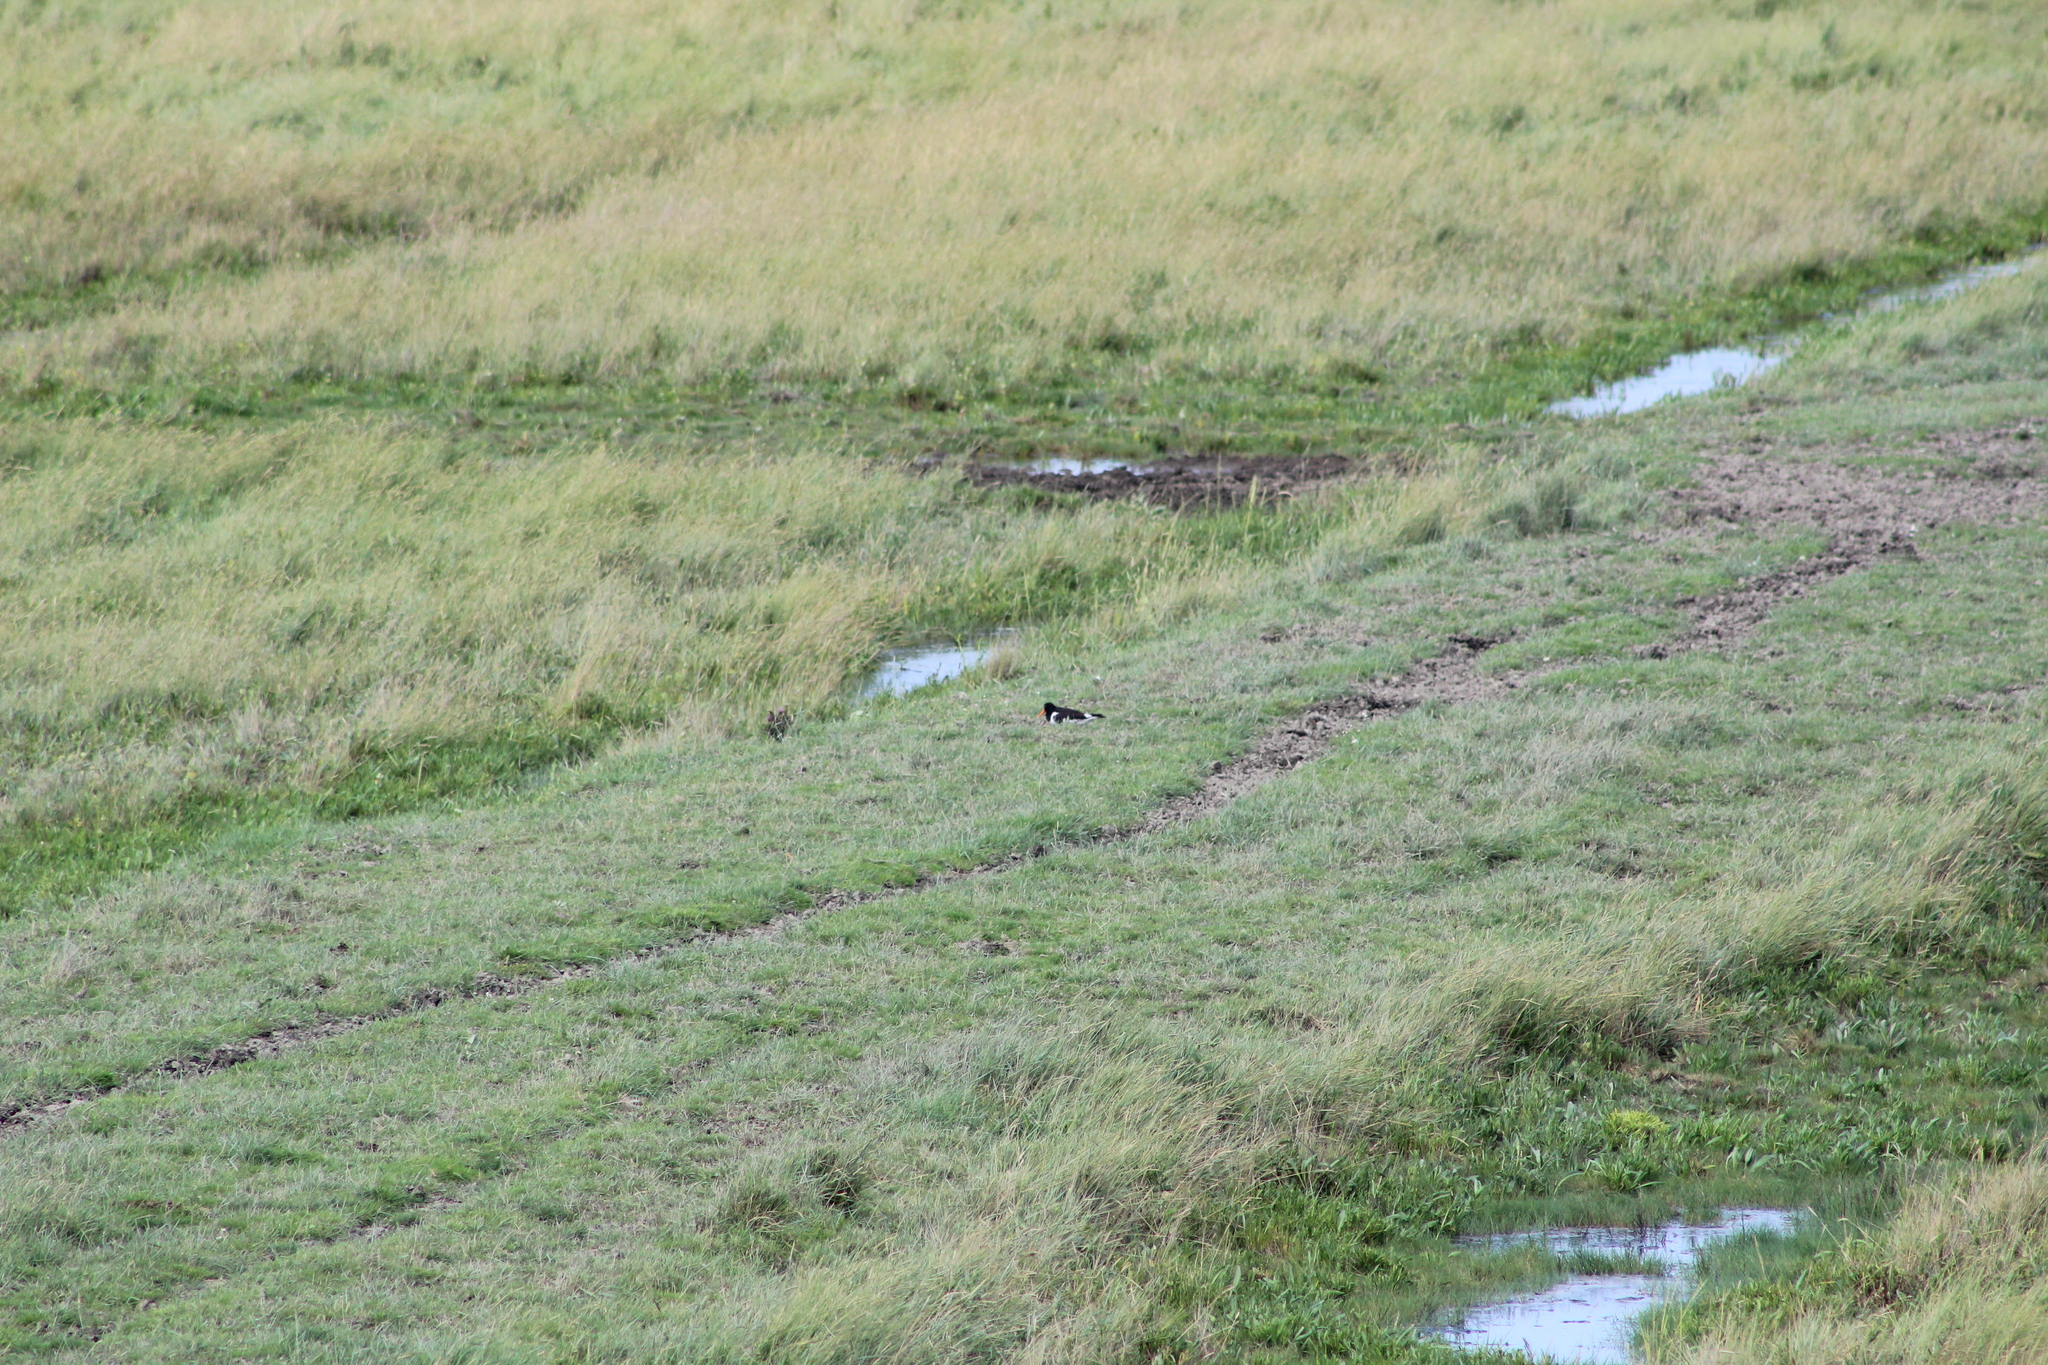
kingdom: Animalia
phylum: Chordata
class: Aves
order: Charadriiformes
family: Haematopodidae
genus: Haematopus
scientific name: Haematopus ostralegus
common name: Eurasian oystercatcher
